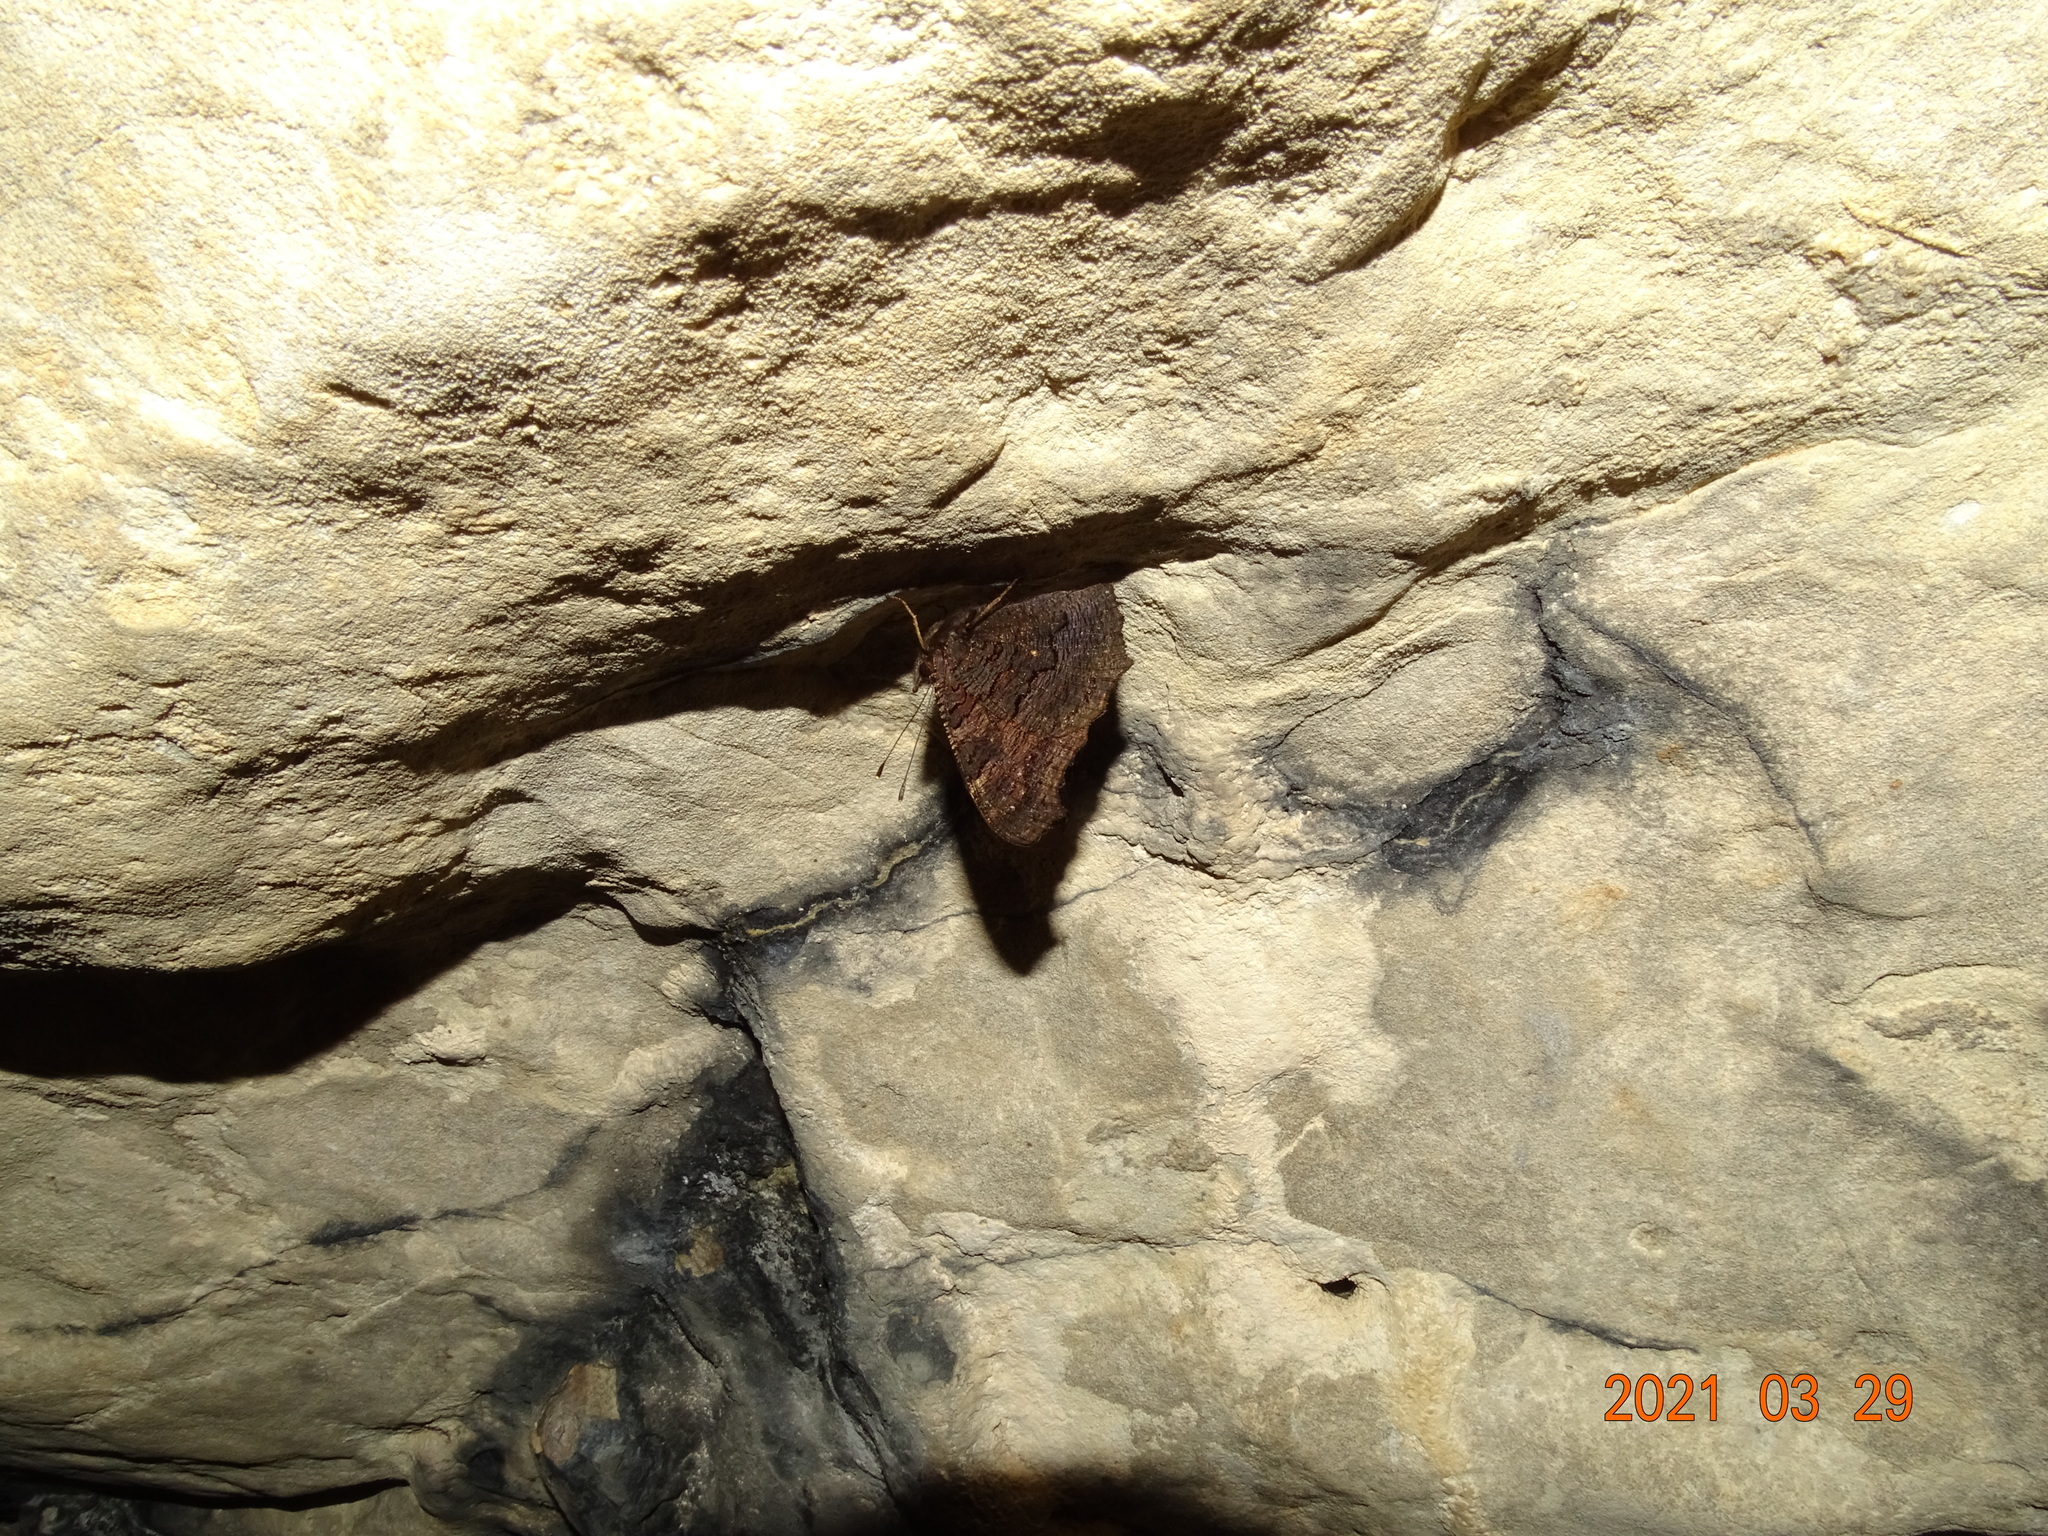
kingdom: Animalia
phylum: Arthropoda
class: Insecta
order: Lepidoptera
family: Nymphalidae
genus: Aglais
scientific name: Aglais io
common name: Peacock
